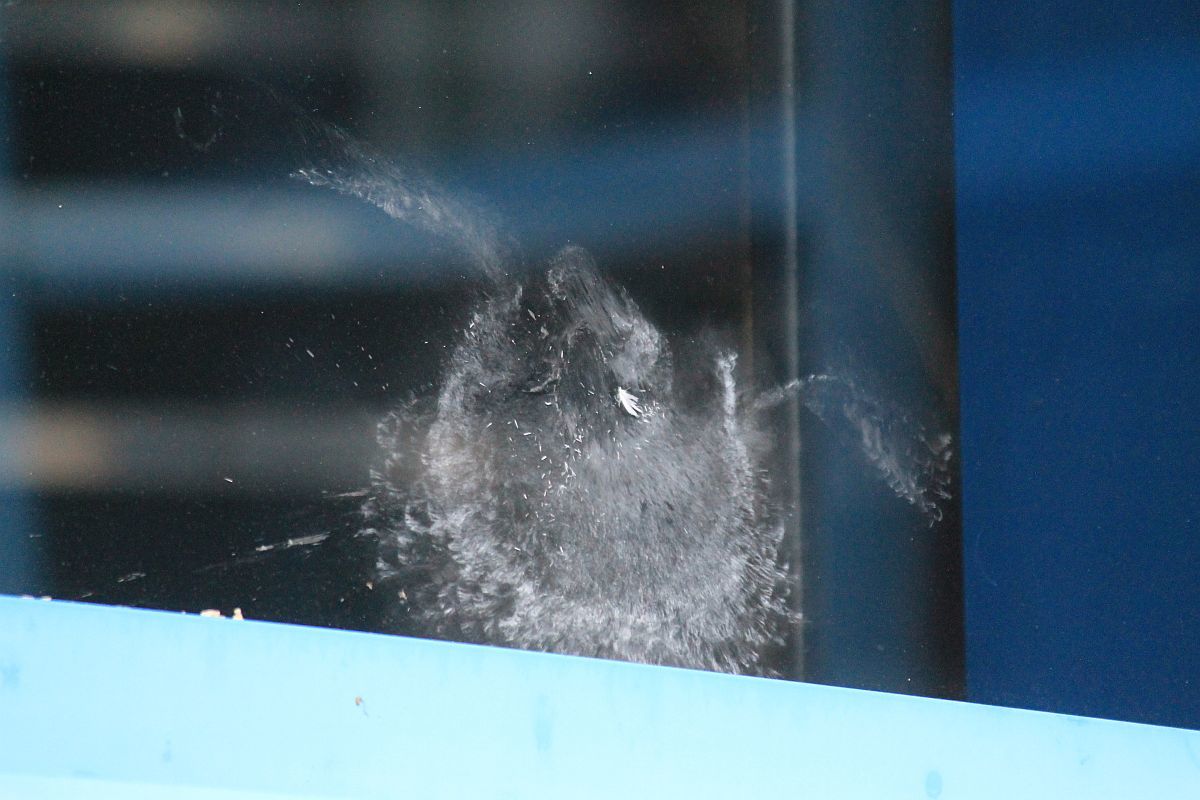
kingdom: Animalia
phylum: Chordata
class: Aves
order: Accipitriformes
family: Accipitridae
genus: Accipiter
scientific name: Accipiter nisus
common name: Eurasian sparrowhawk
